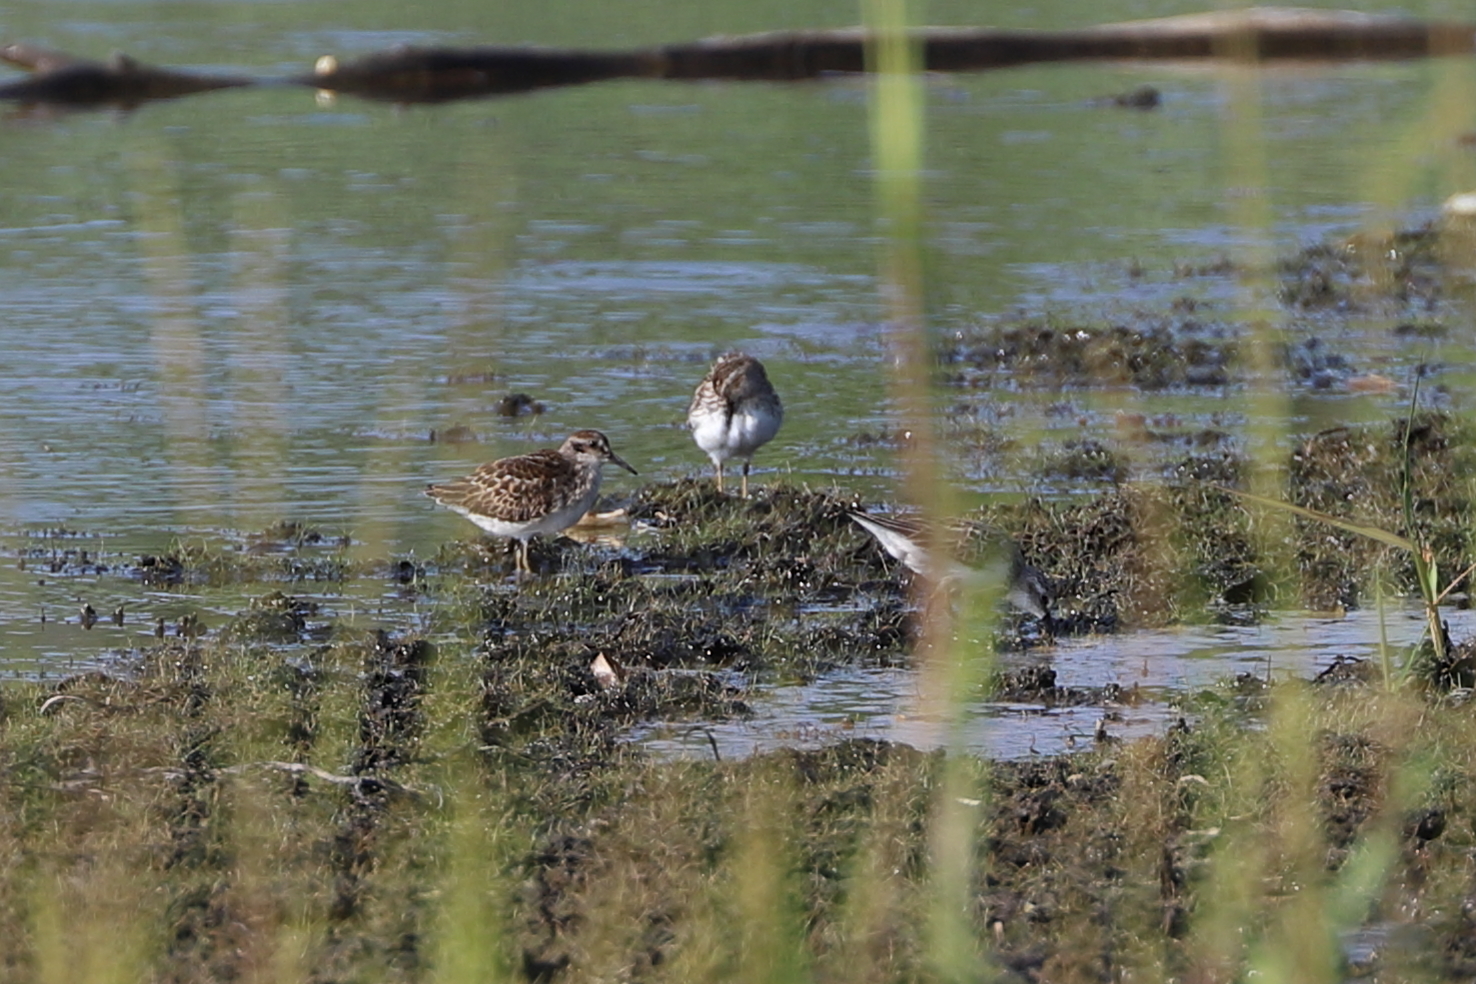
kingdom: Animalia
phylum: Chordata
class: Aves
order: Charadriiformes
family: Scolopacidae
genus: Calidris
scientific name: Calidris minutilla
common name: Least sandpiper
